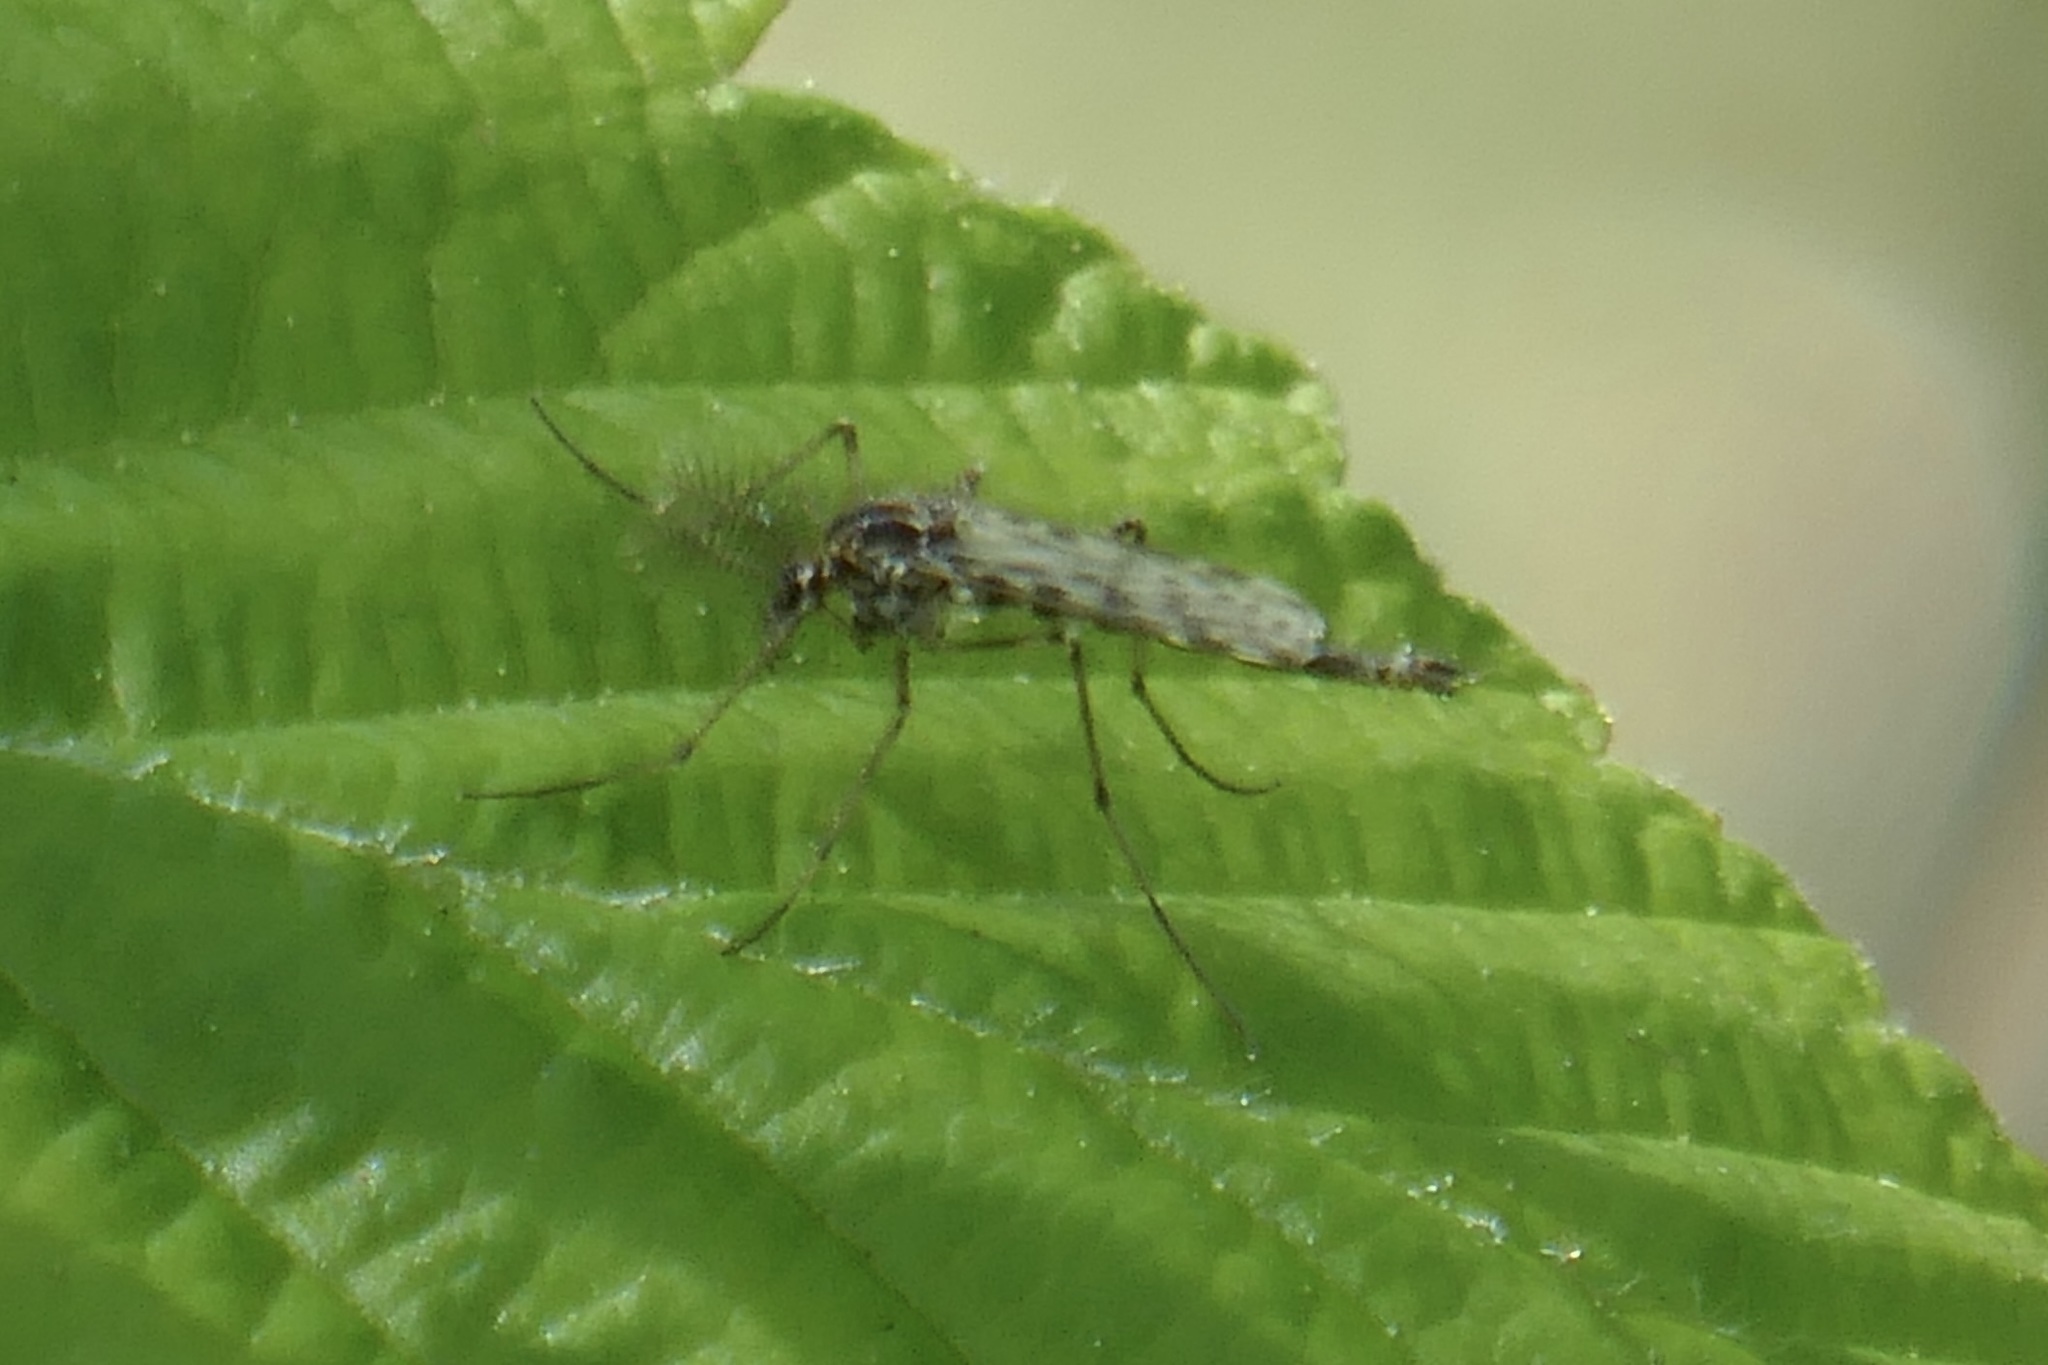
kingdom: Animalia
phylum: Arthropoda
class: Insecta
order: Diptera
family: Chaoboridae
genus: Chaoborus
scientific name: Chaoborus trivittatus
